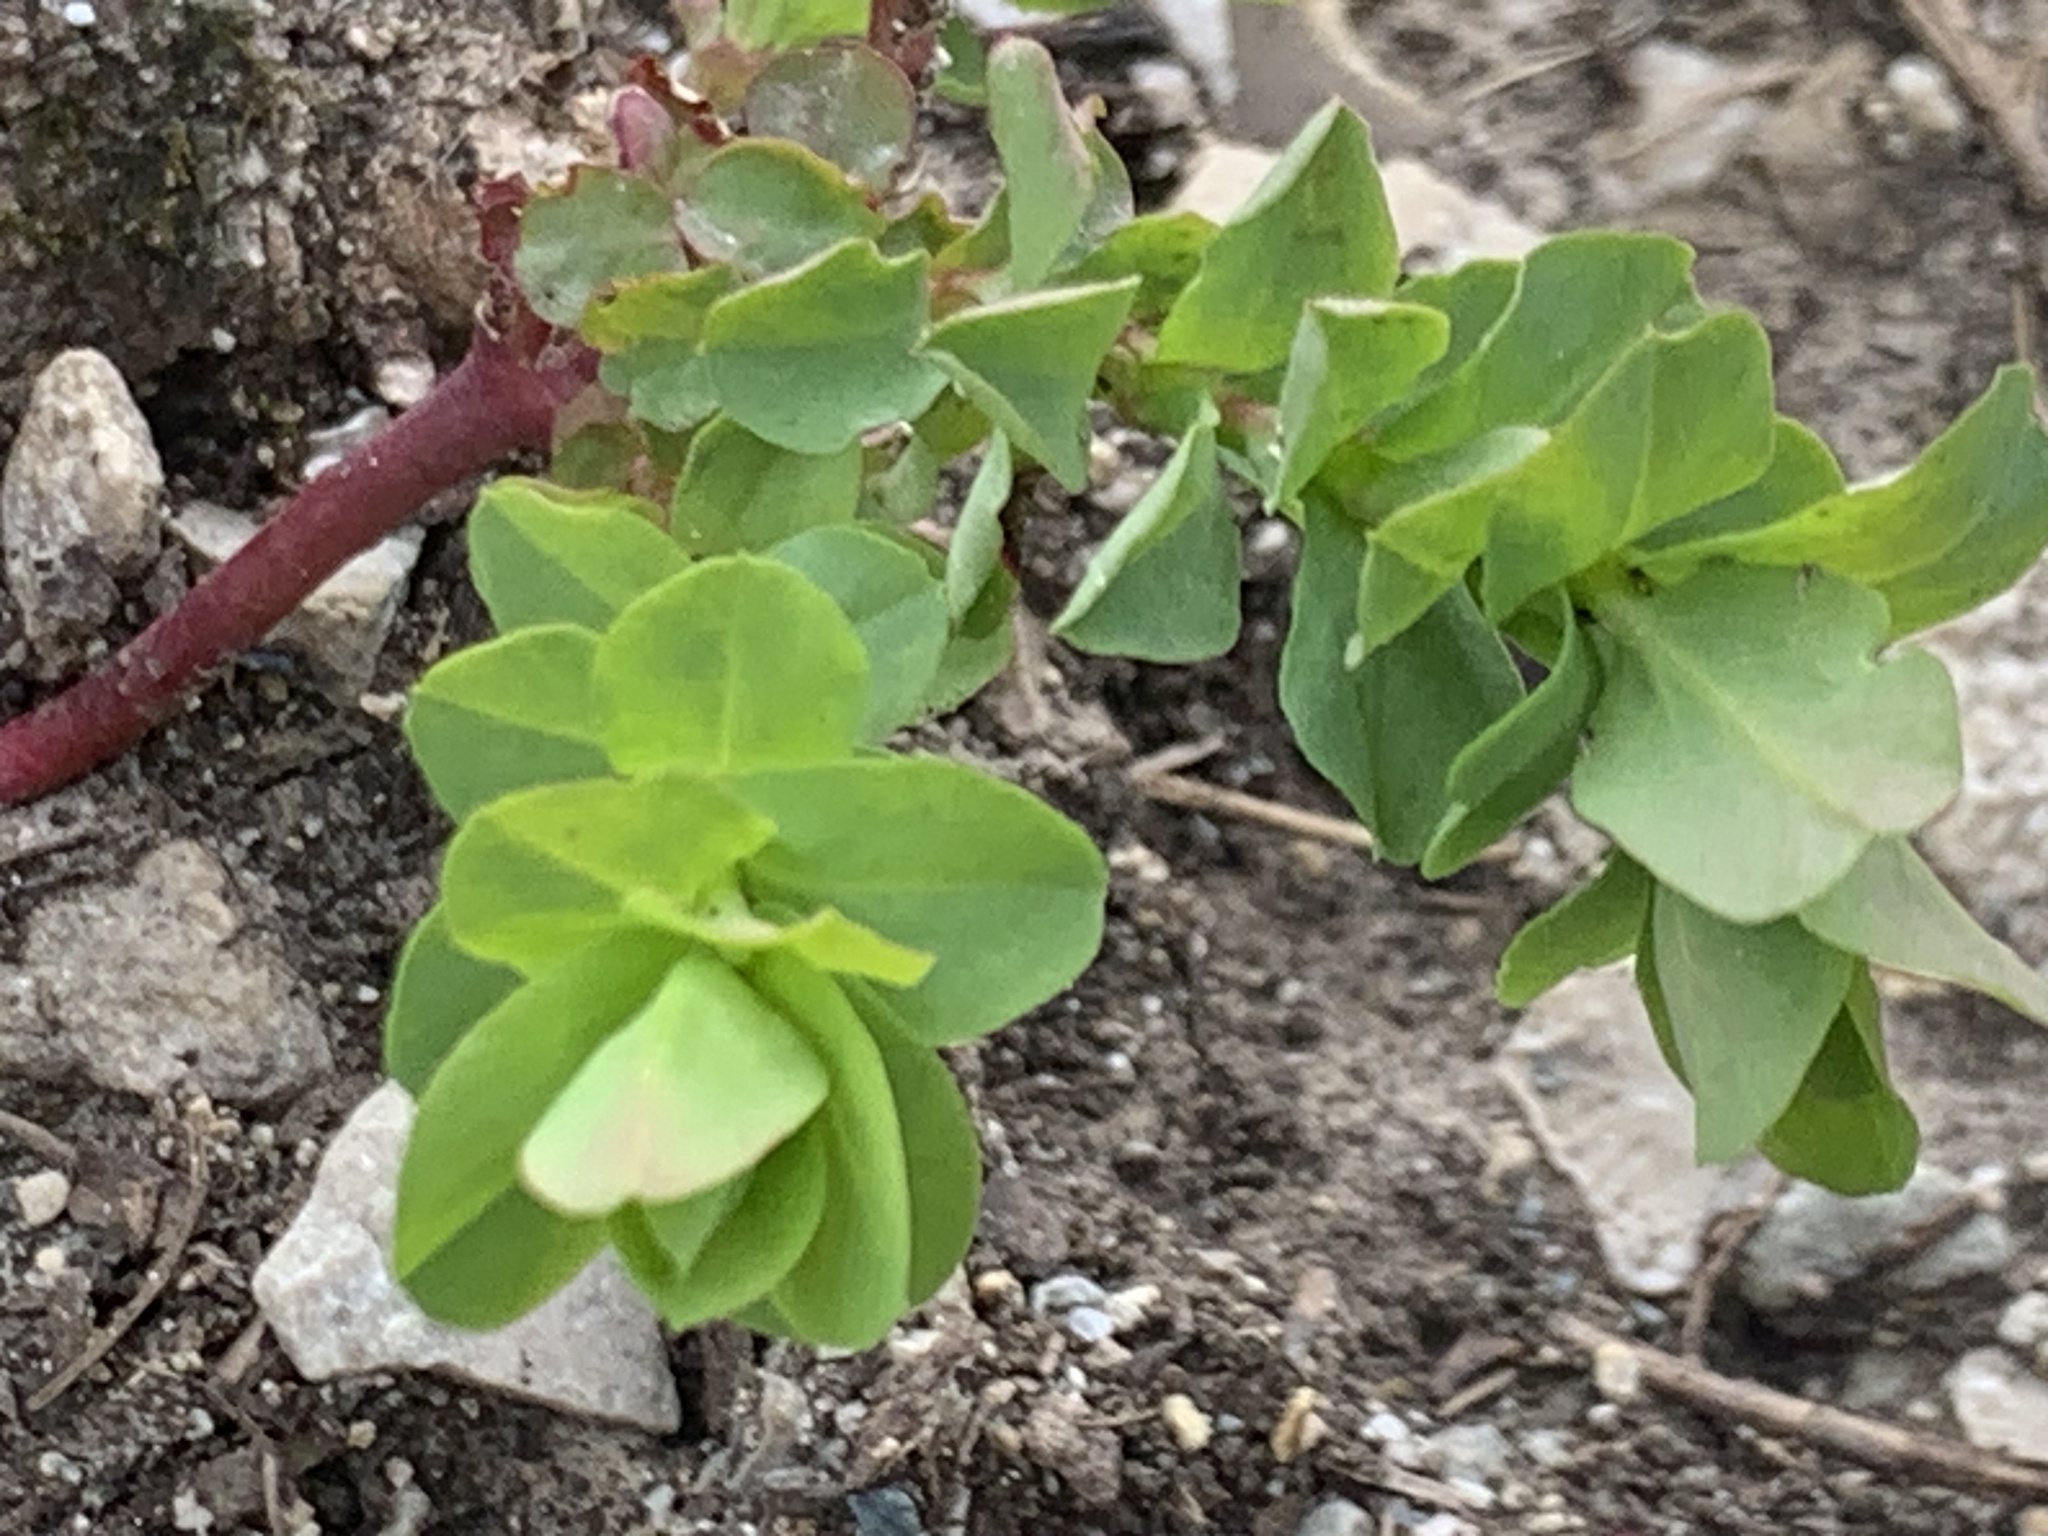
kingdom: Plantae
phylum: Tracheophyta
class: Magnoliopsida
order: Malpighiales
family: Euphorbiaceae
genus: Euphorbia
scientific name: Euphorbia commutata
